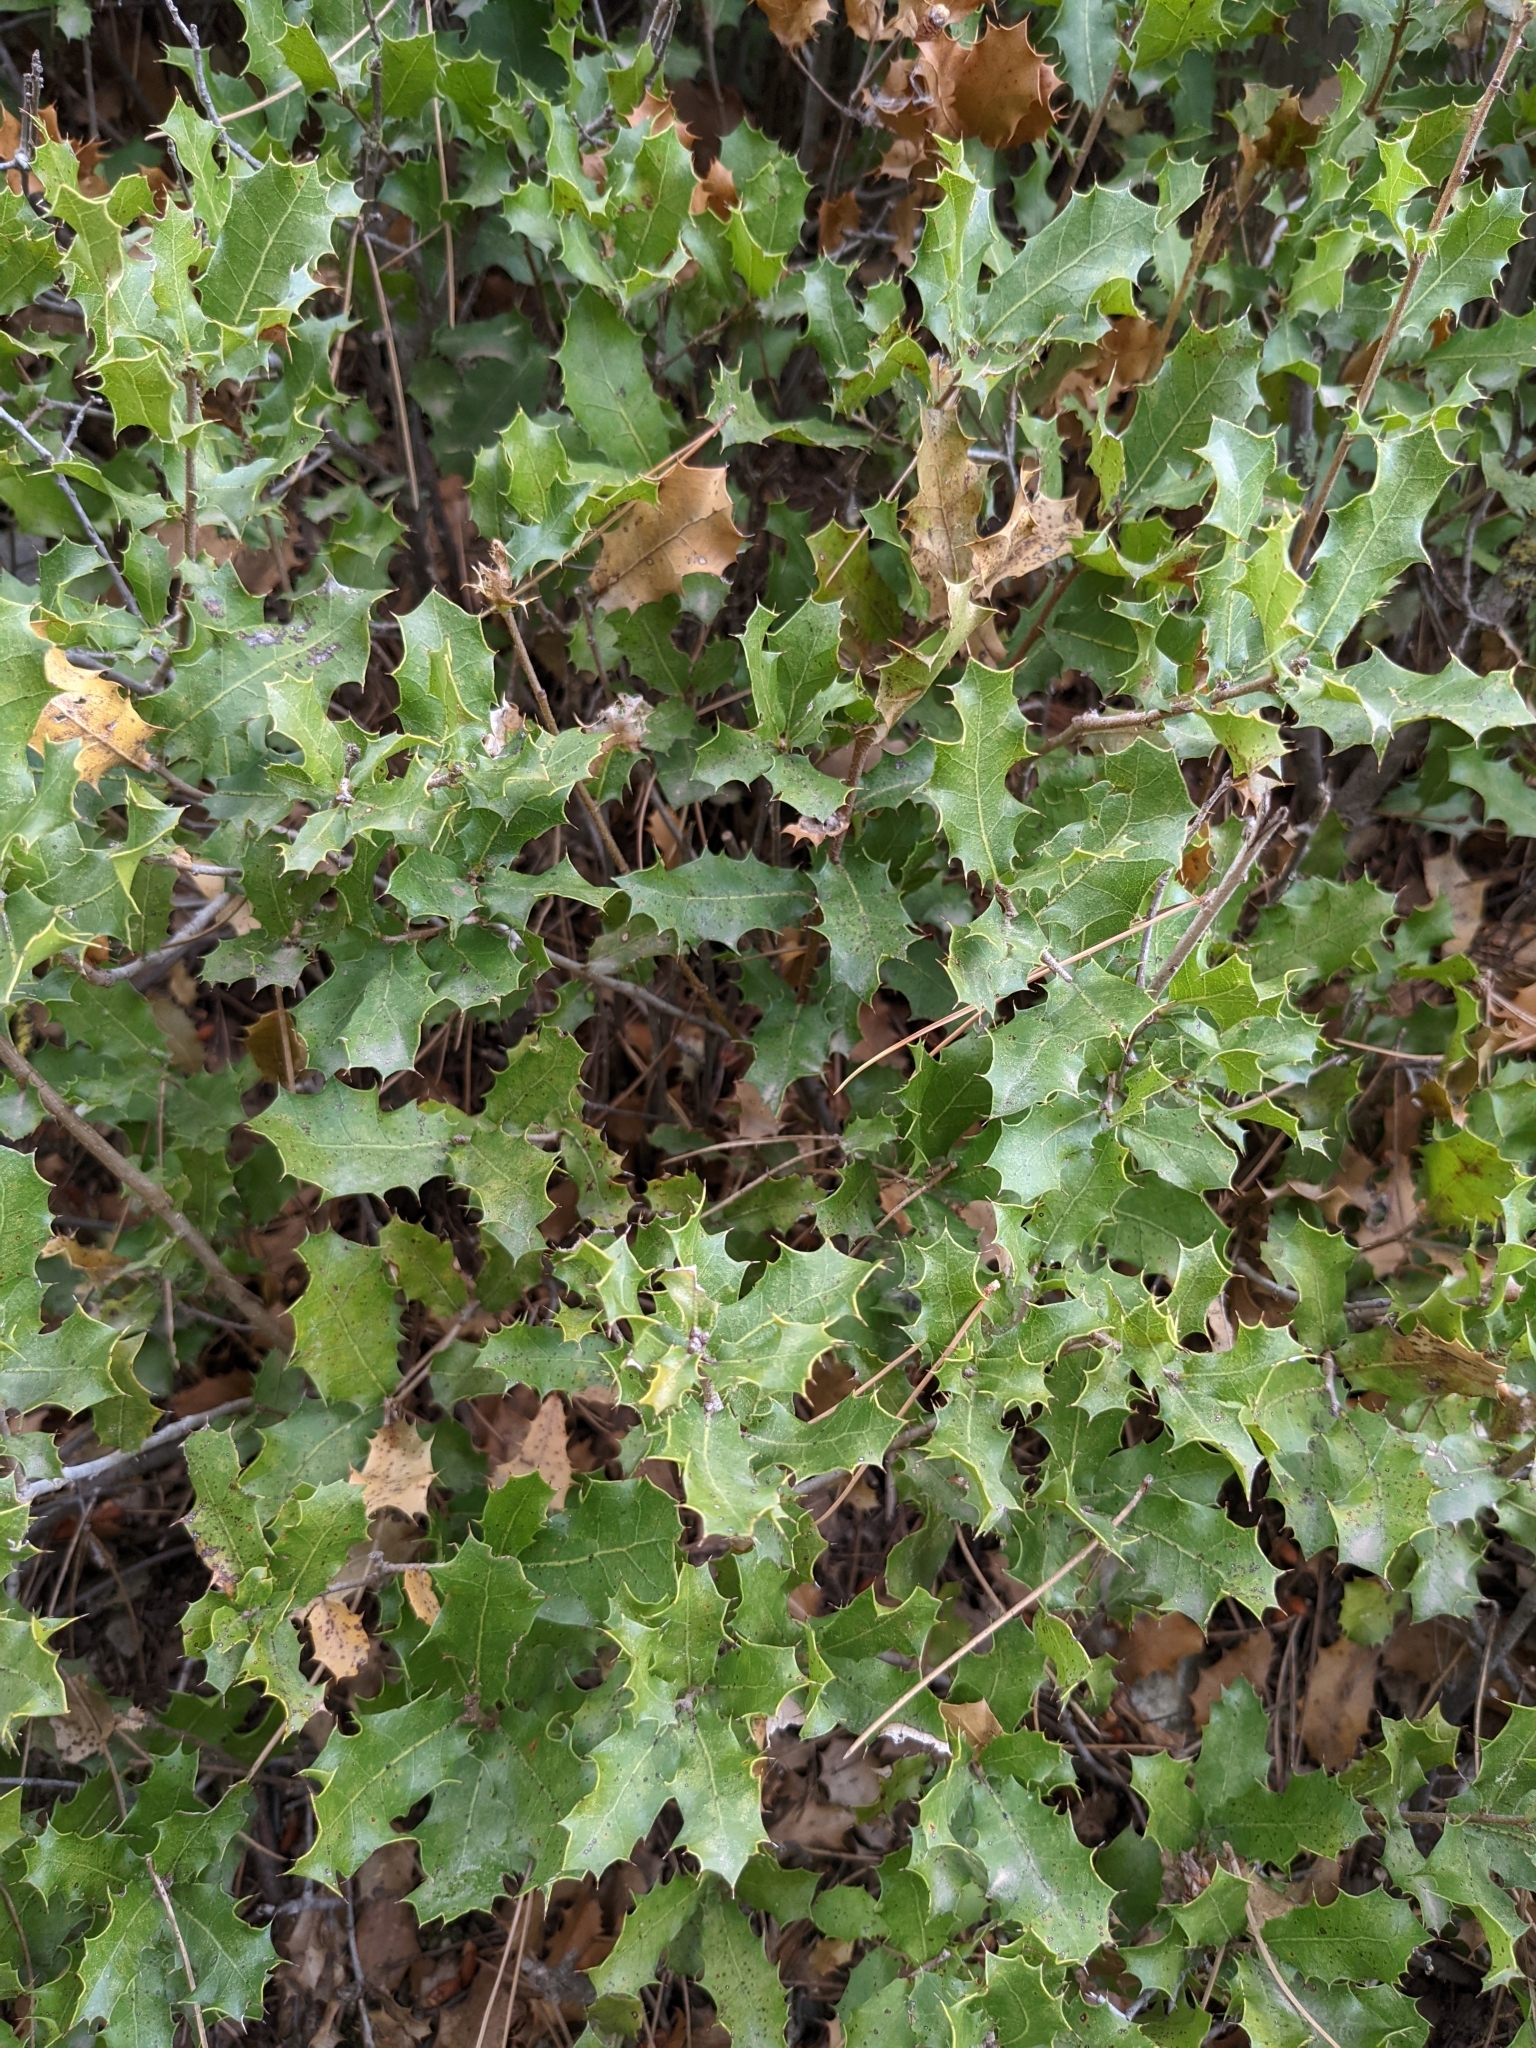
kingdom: Plantae
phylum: Tracheophyta
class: Magnoliopsida
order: Fagales
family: Fagaceae
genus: Quercus
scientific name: Quercus coccifera
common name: Kermes oak
